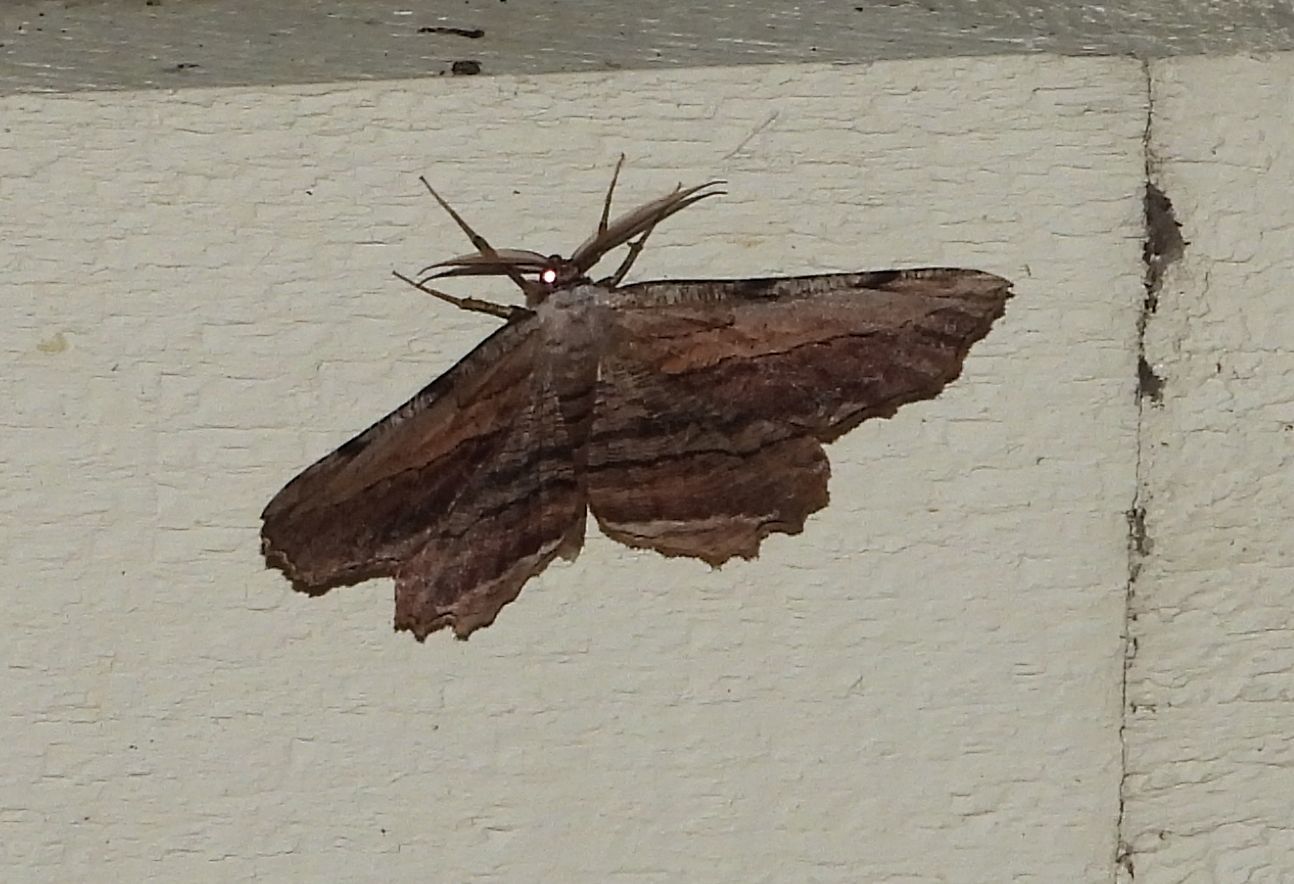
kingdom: Animalia
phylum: Arthropoda
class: Insecta
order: Lepidoptera
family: Geometridae
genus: Lytrosis
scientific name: Lytrosis unitaria
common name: Common lytrosis
